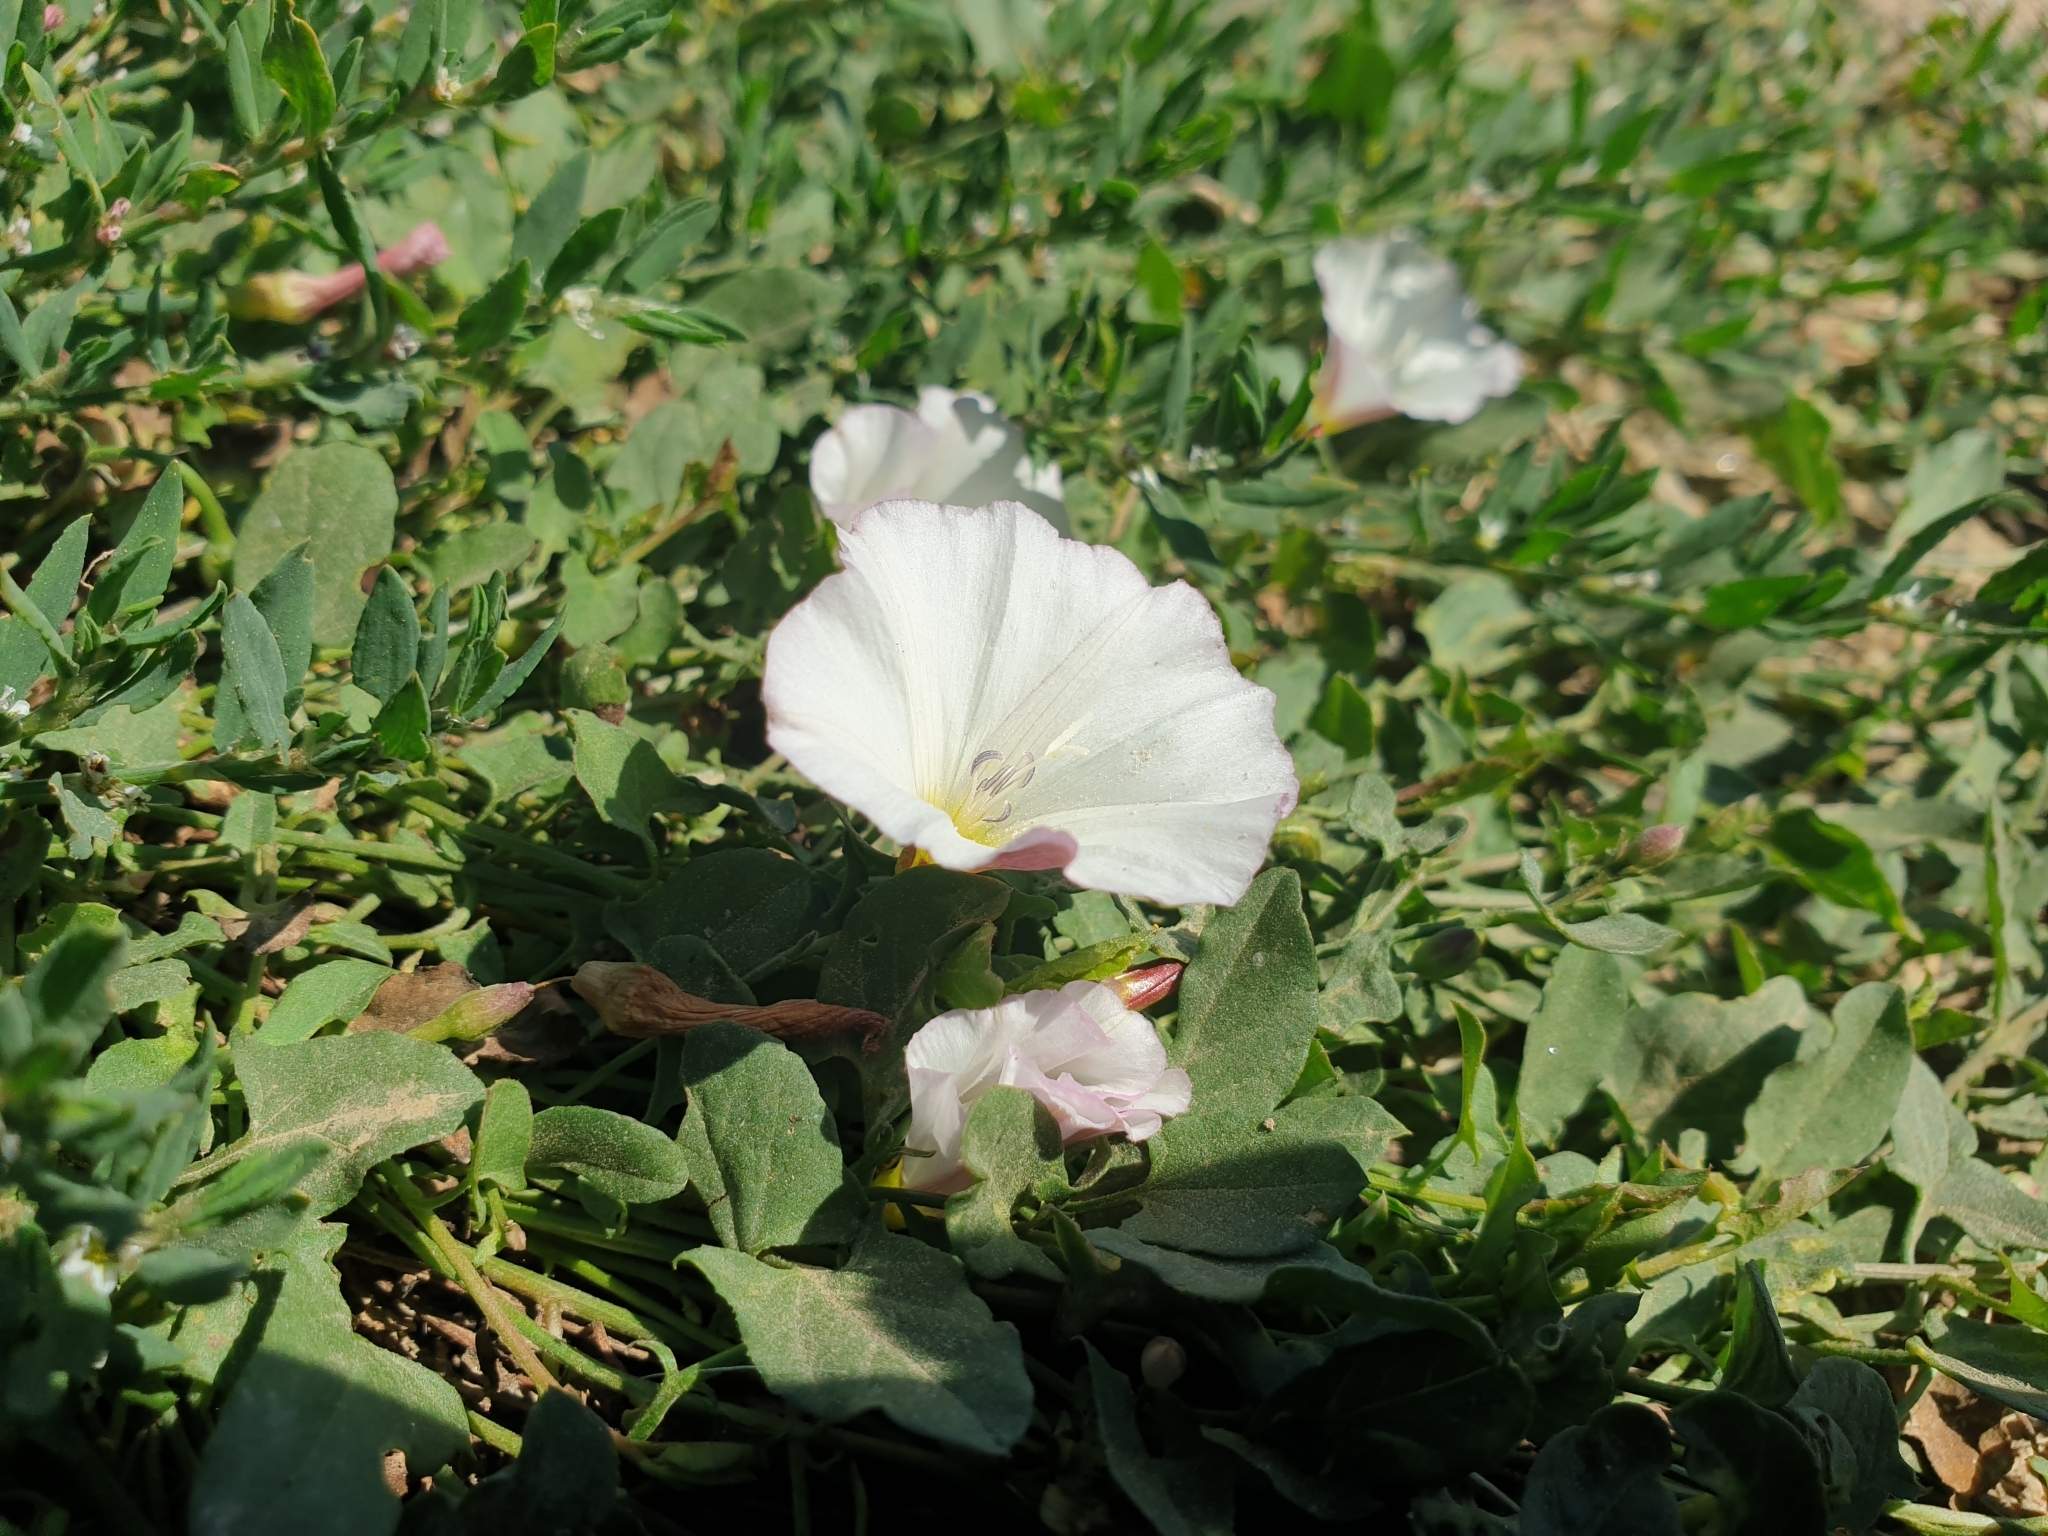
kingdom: Plantae
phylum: Tracheophyta
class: Magnoliopsida
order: Solanales
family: Convolvulaceae
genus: Convolvulus
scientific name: Convolvulus arvensis
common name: Field bindweed
